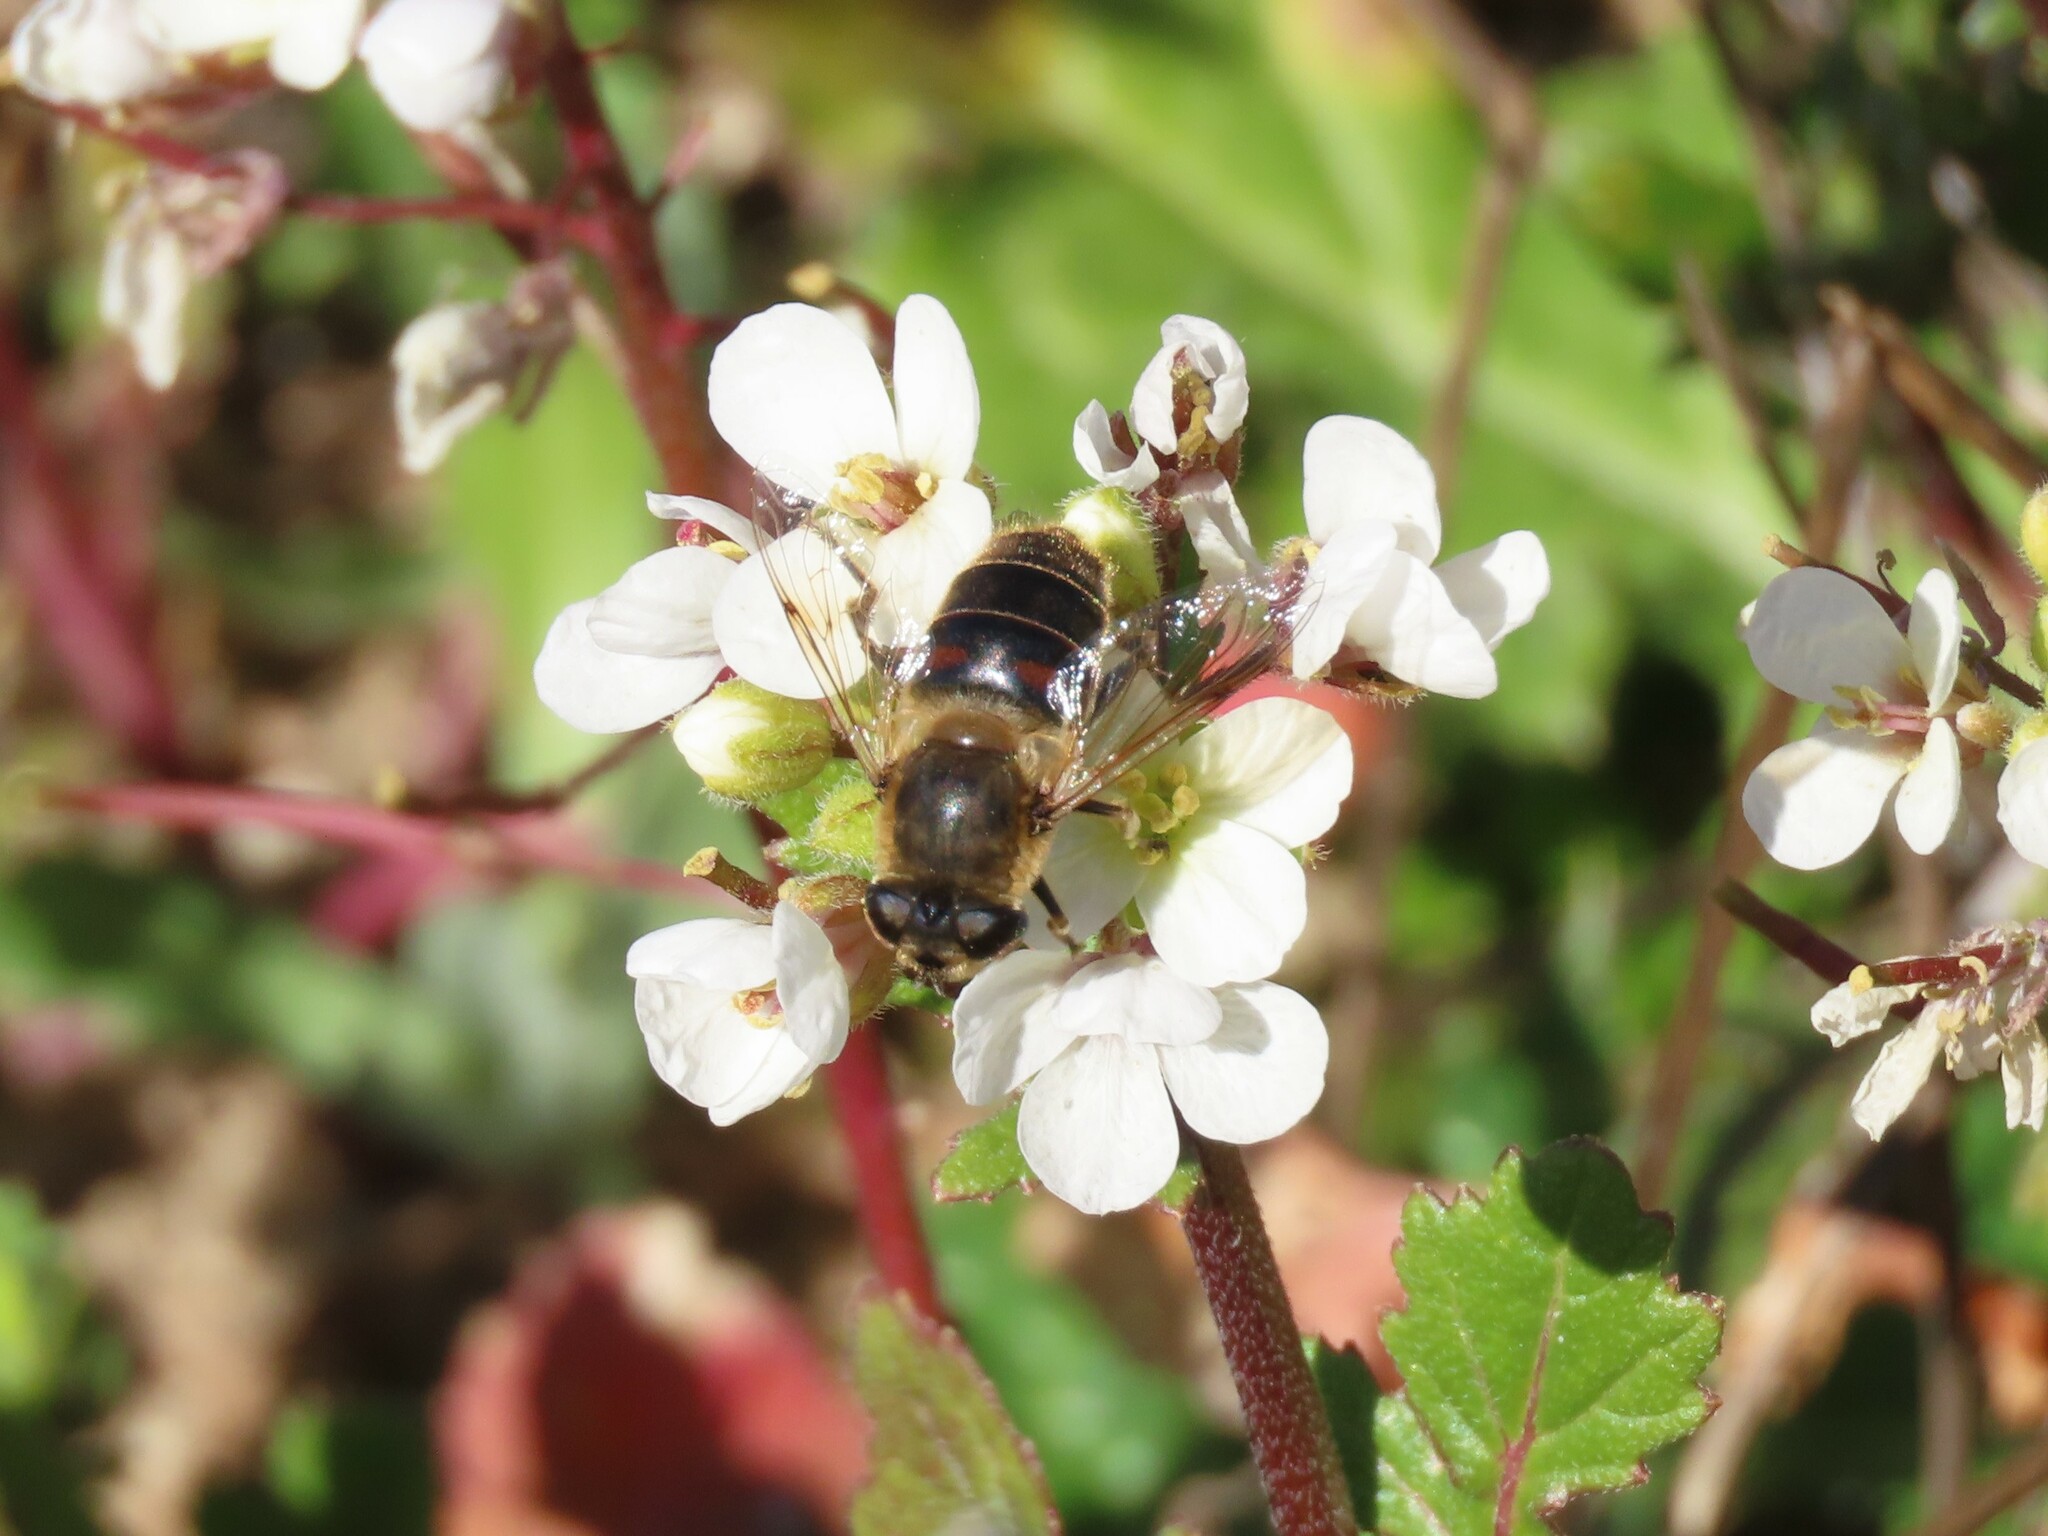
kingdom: Animalia
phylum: Arthropoda
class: Insecta
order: Diptera
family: Syrphidae
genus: Eristalis
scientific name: Eristalis tenax
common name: Drone fly
